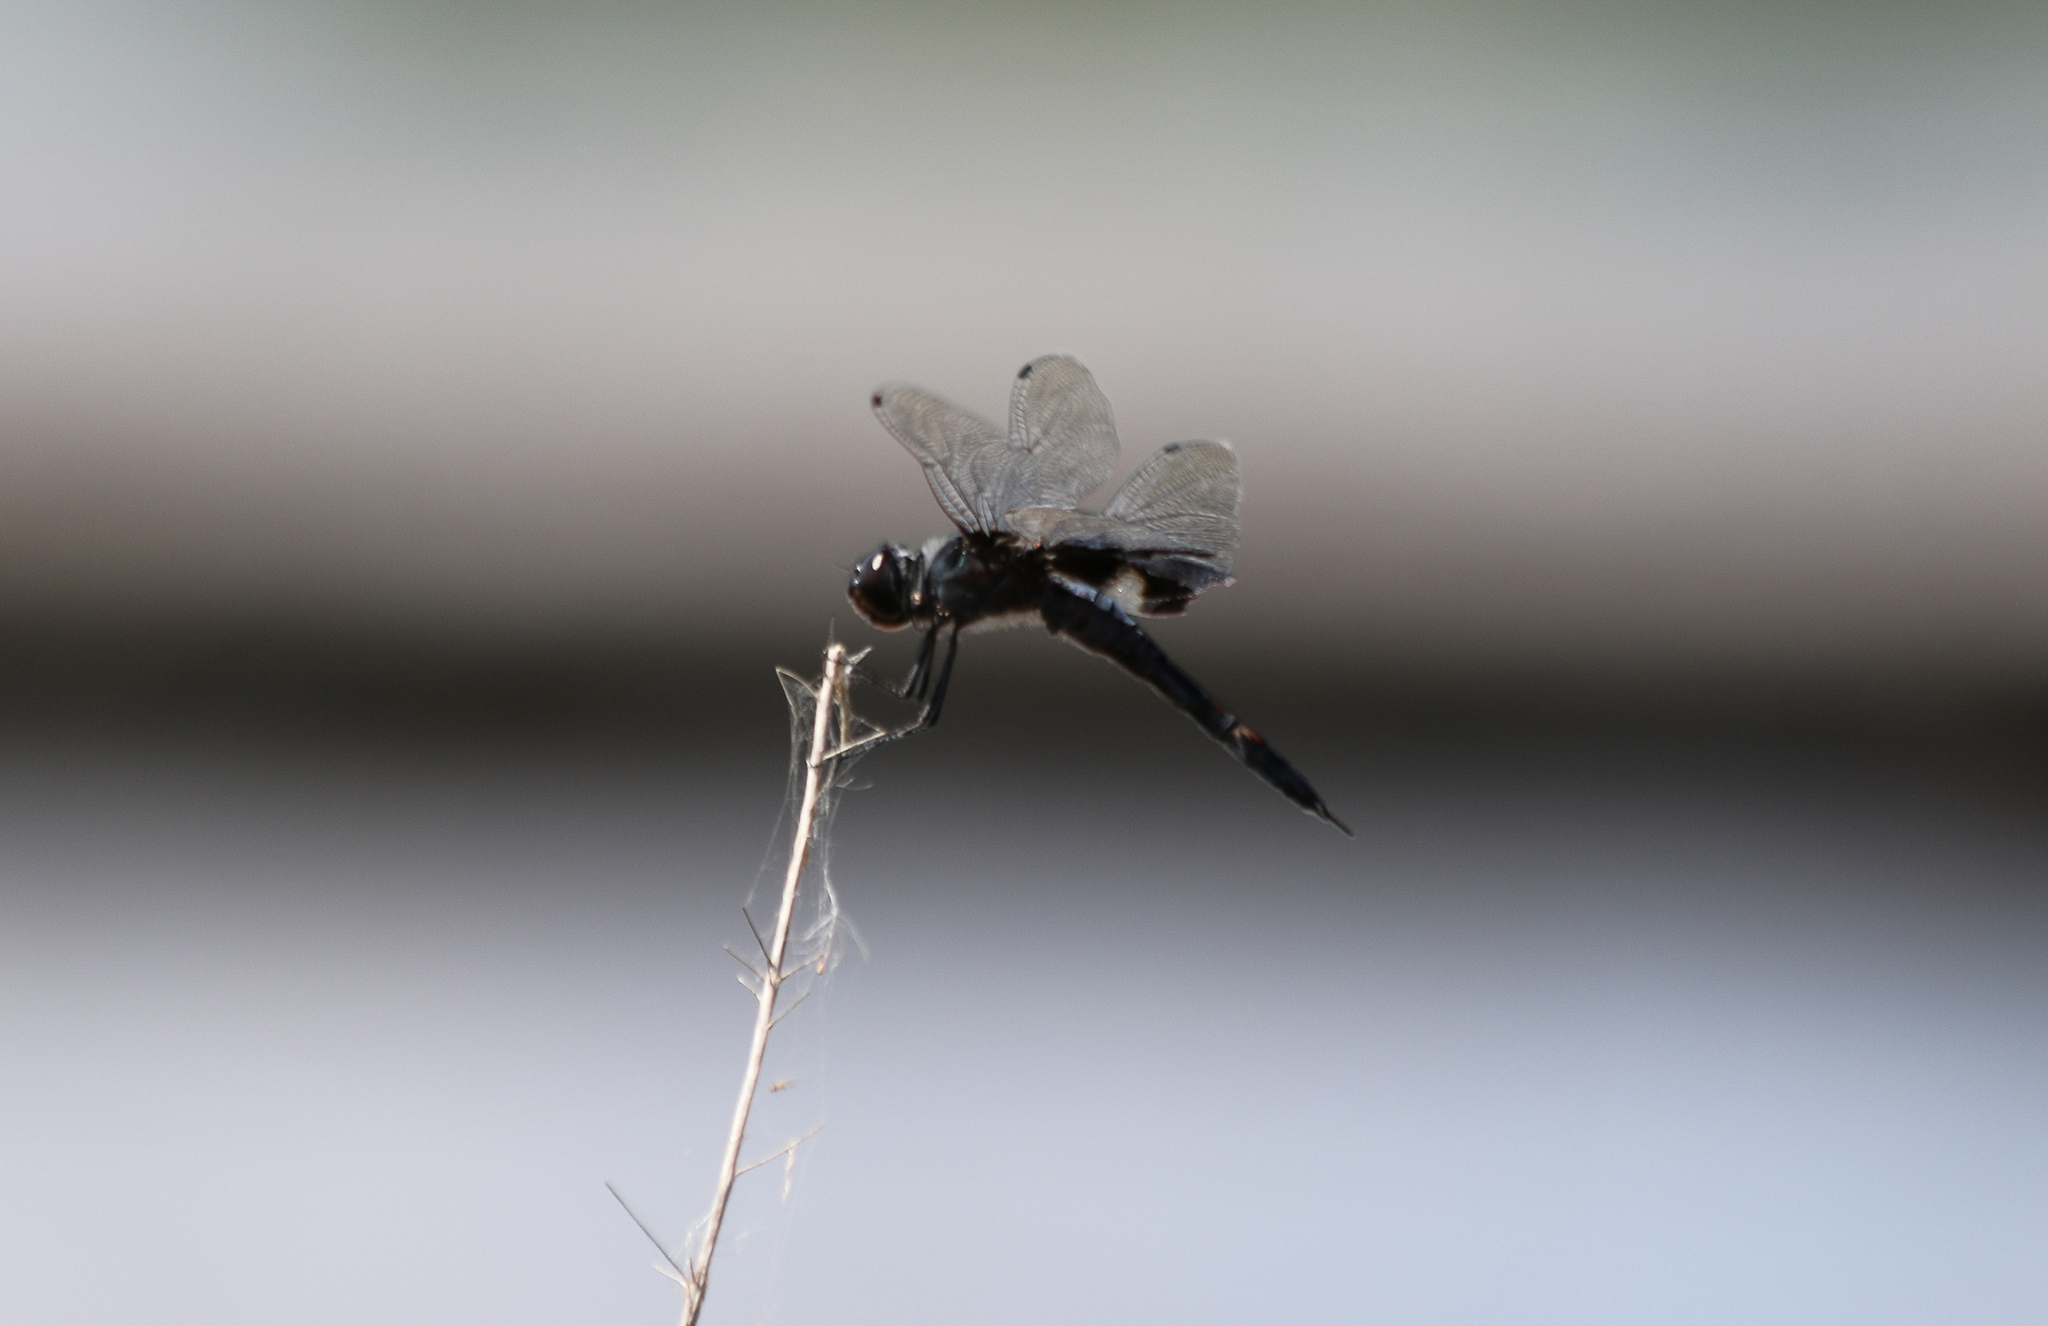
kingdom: Animalia
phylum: Arthropoda
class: Insecta
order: Odonata
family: Libellulidae
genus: Tramea
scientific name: Tramea lacerata
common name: Black saddlebags
